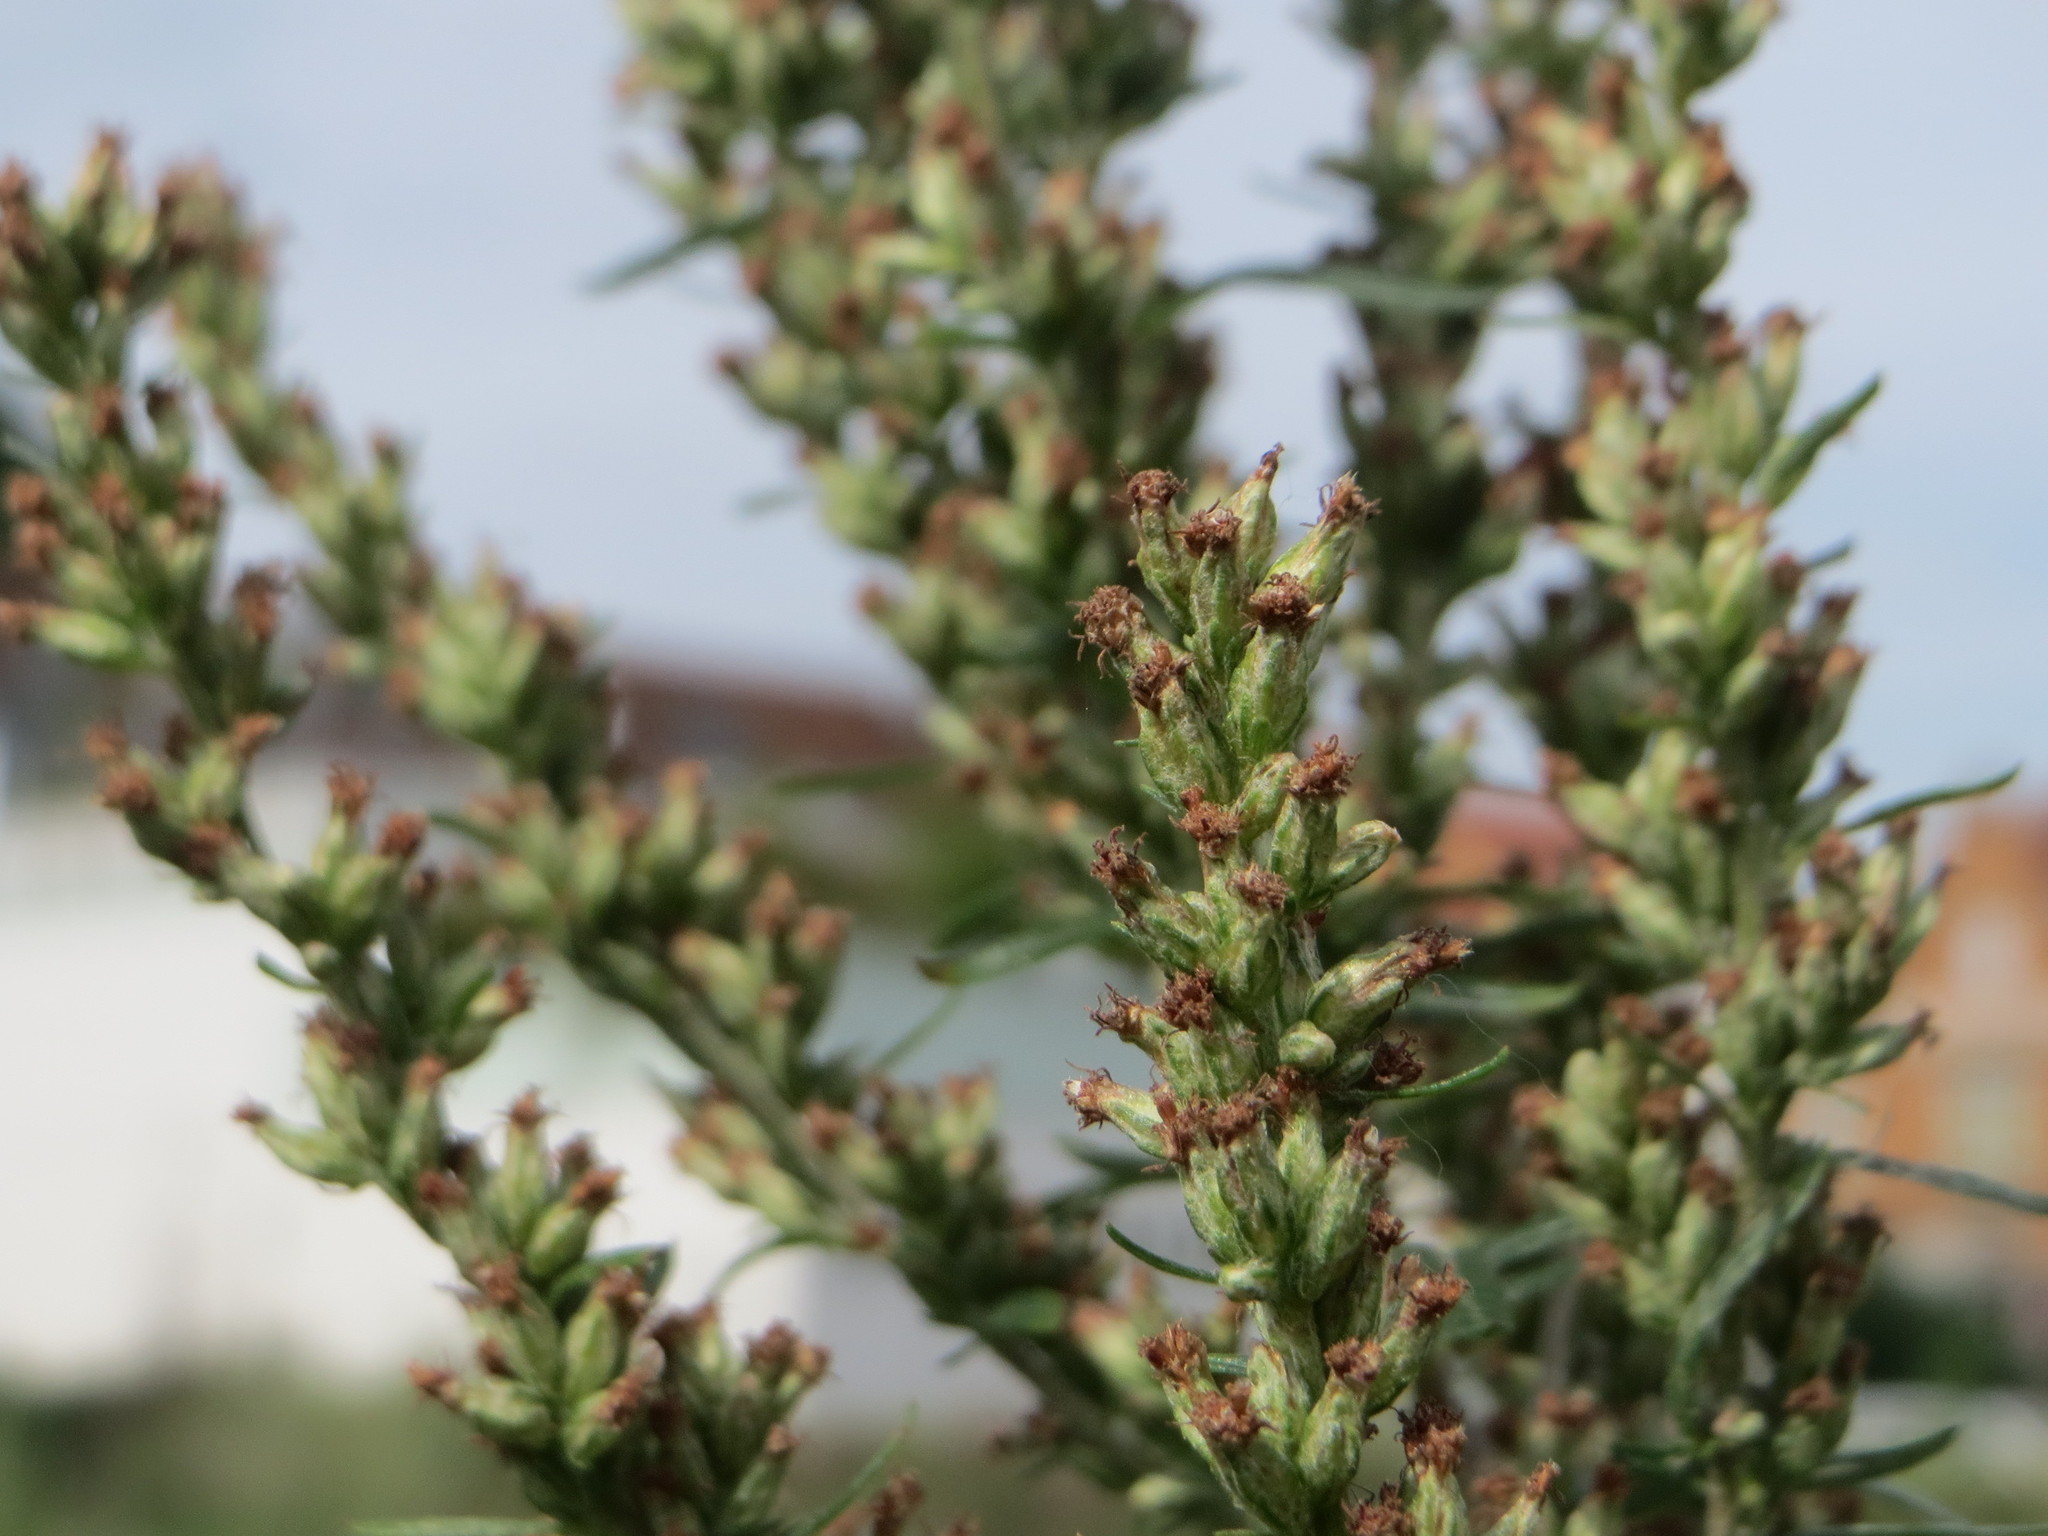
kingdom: Plantae
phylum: Tracheophyta
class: Magnoliopsida
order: Asterales
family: Asteraceae
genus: Artemisia
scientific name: Artemisia vulgaris
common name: Mugwort
